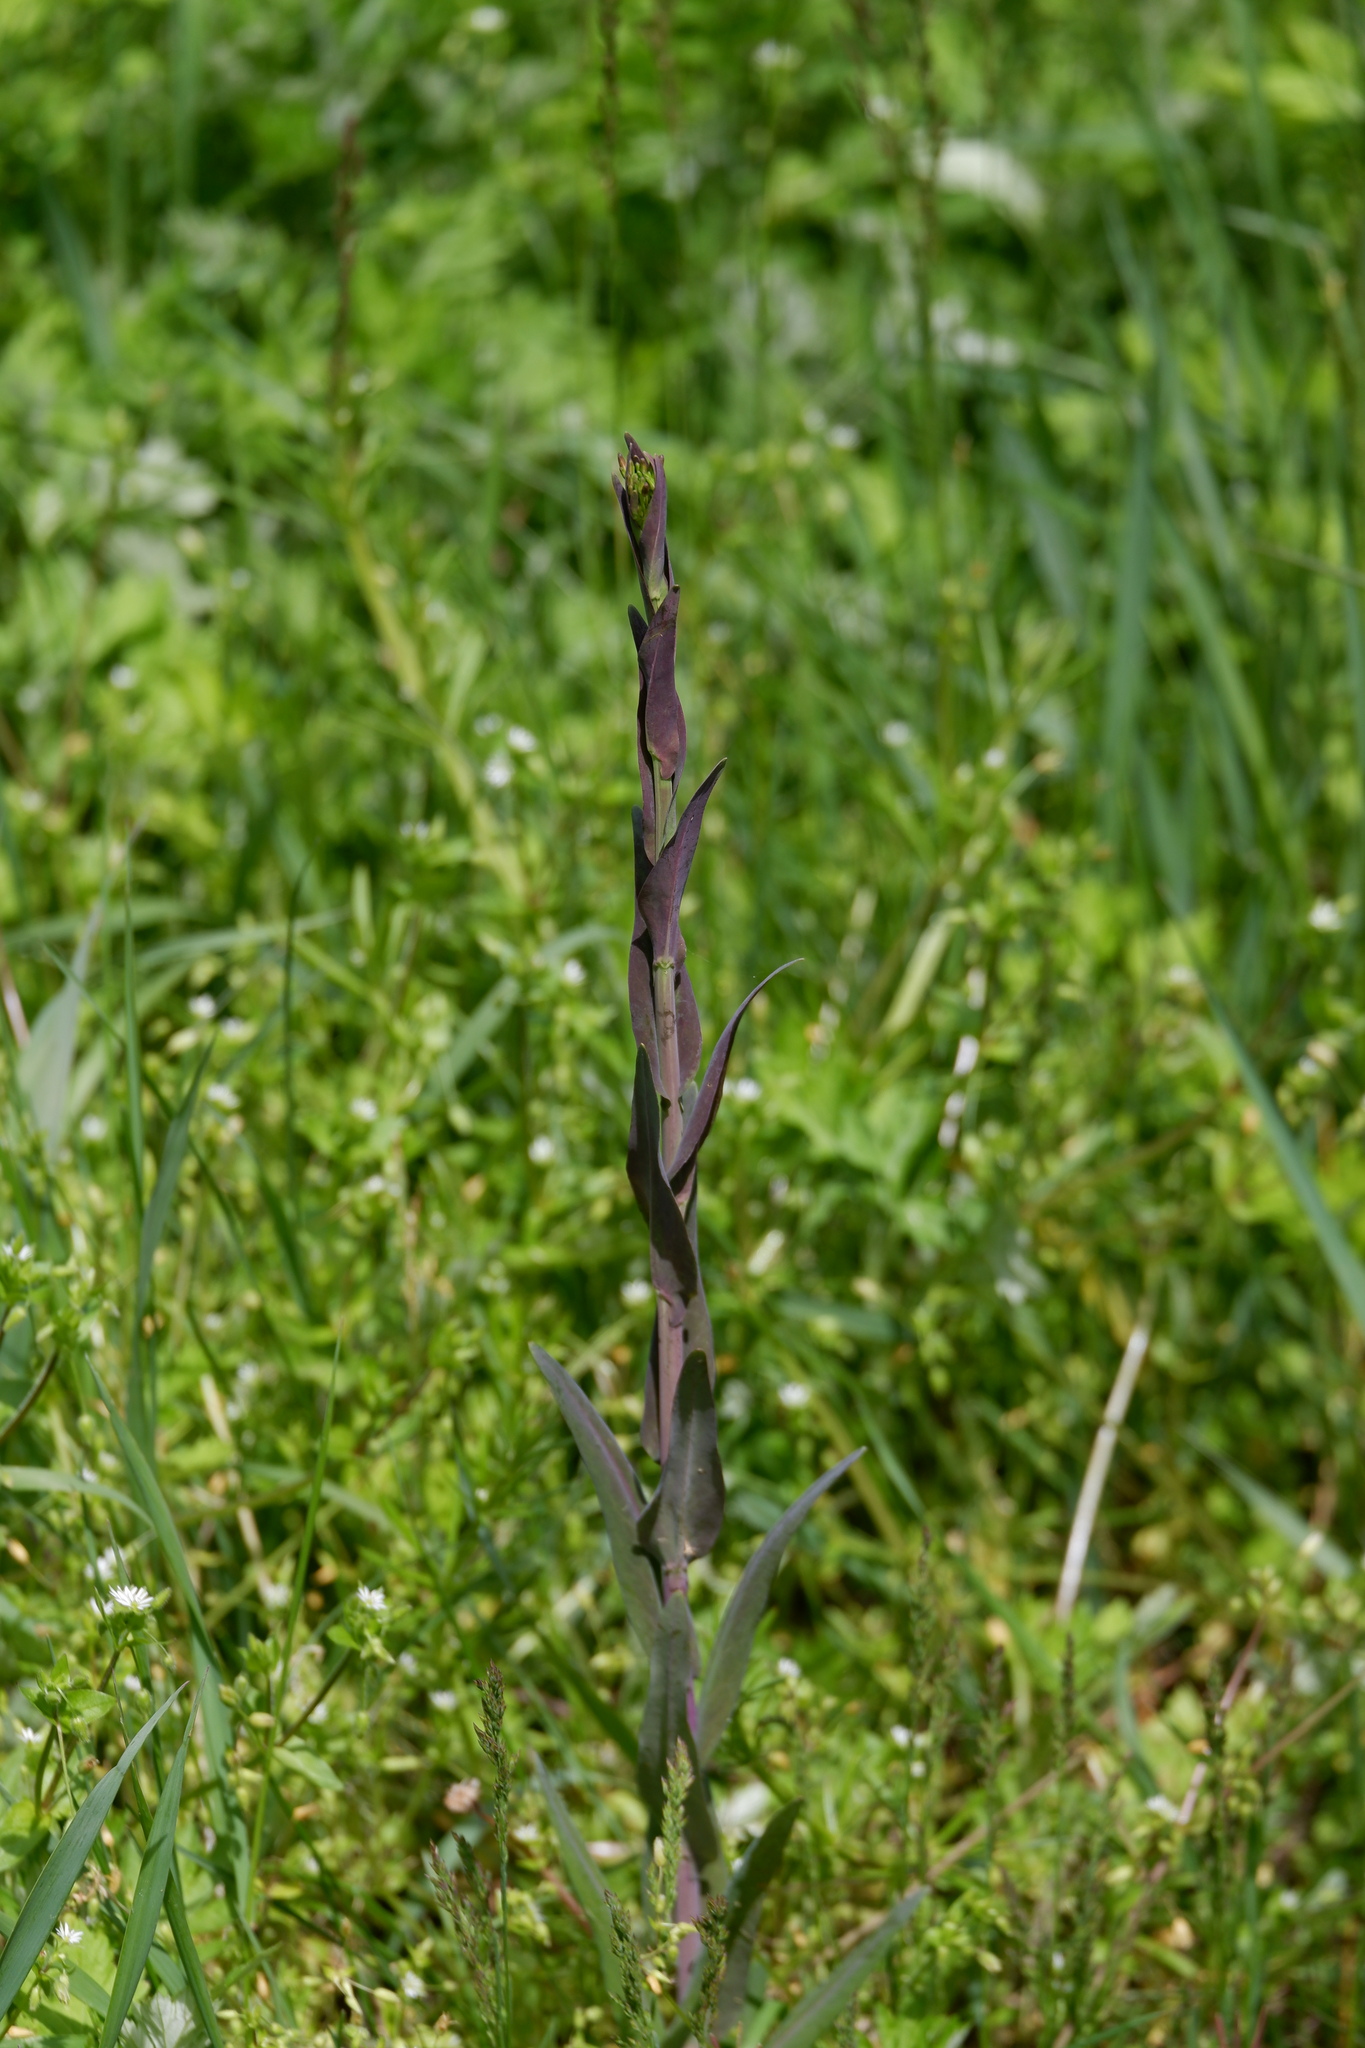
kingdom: Plantae
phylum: Tracheophyta
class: Magnoliopsida
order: Brassicales
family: Brassicaceae
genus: Turritis
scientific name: Turritis glabra
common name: Tower rockcress
